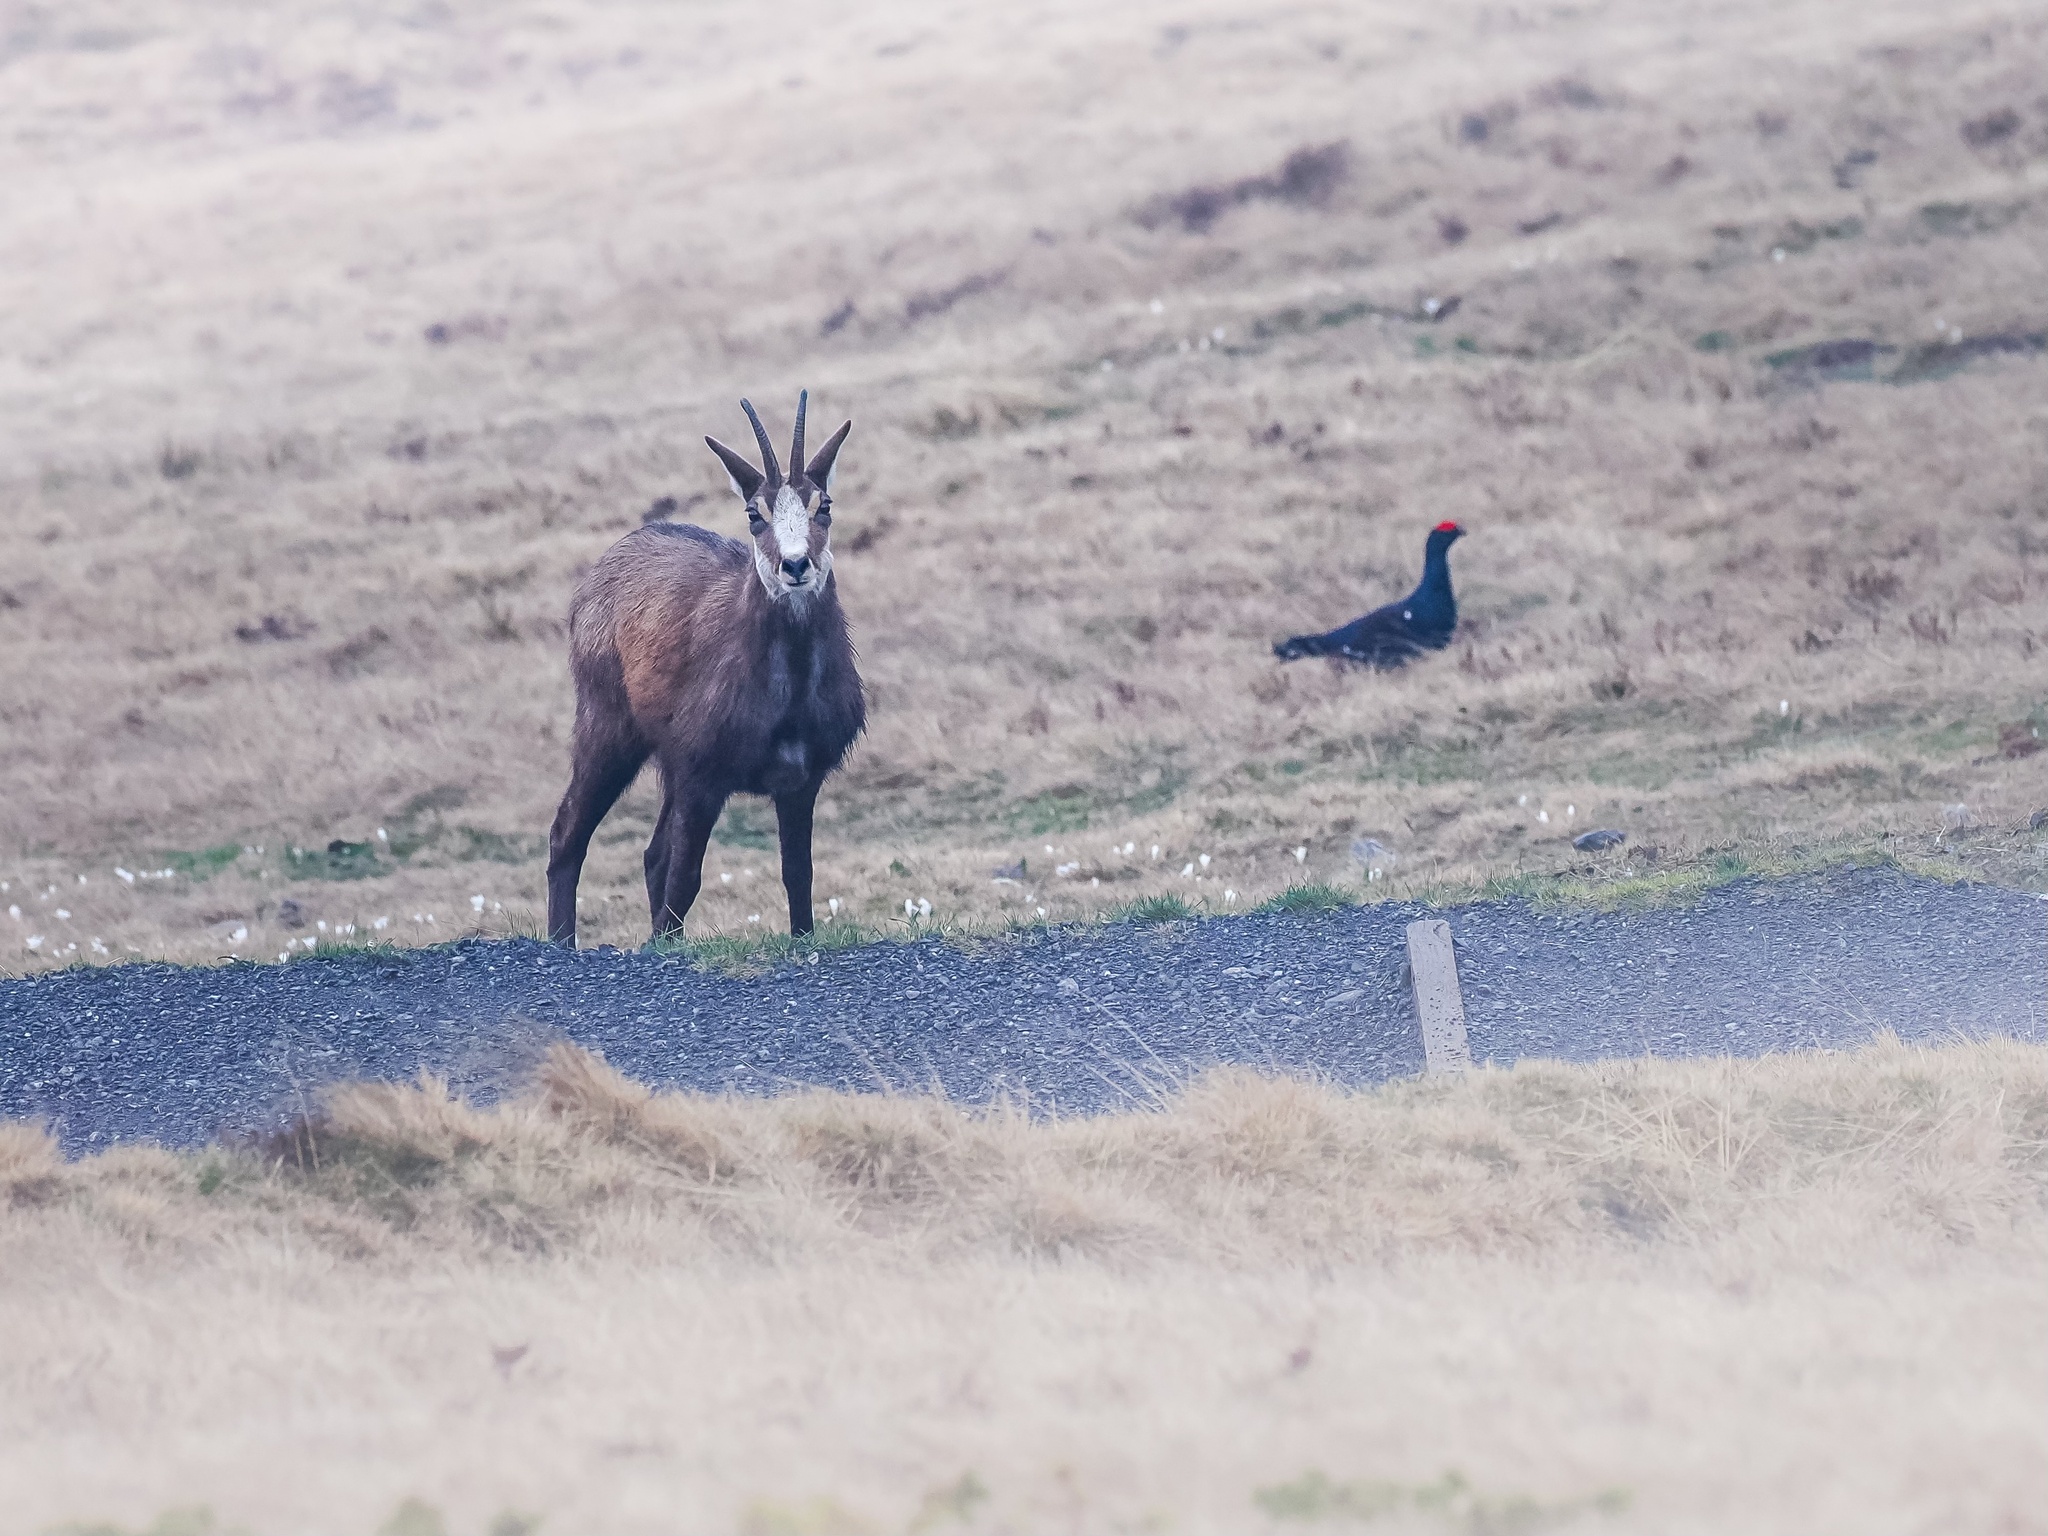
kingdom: Animalia
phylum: Chordata
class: Mammalia
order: Artiodactyla
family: Bovidae
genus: Rupicapra
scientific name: Rupicapra rupicapra
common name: Chamois
